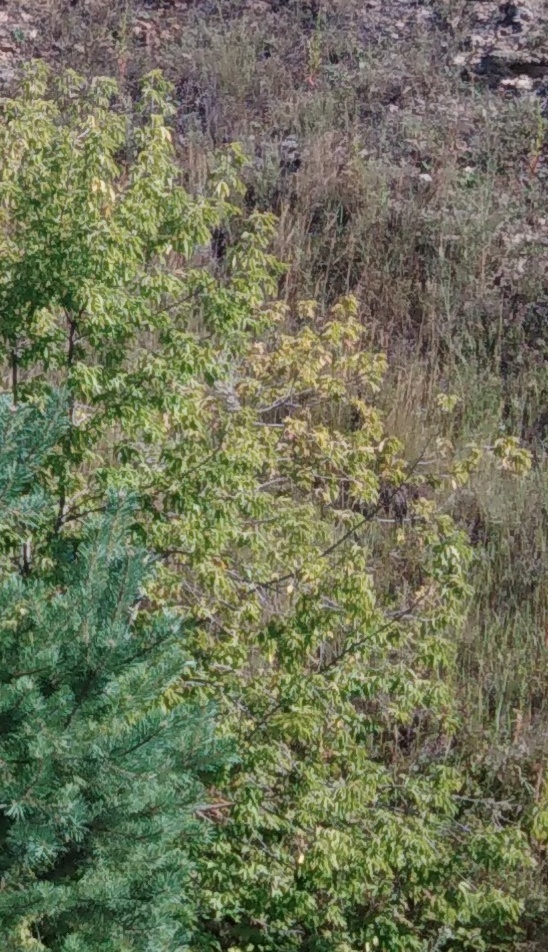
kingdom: Plantae
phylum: Tracheophyta
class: Magnoliopsida
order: Sapindales
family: Sapindaceae
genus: Acer
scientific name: Acer negundo
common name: Ashleaf maple
